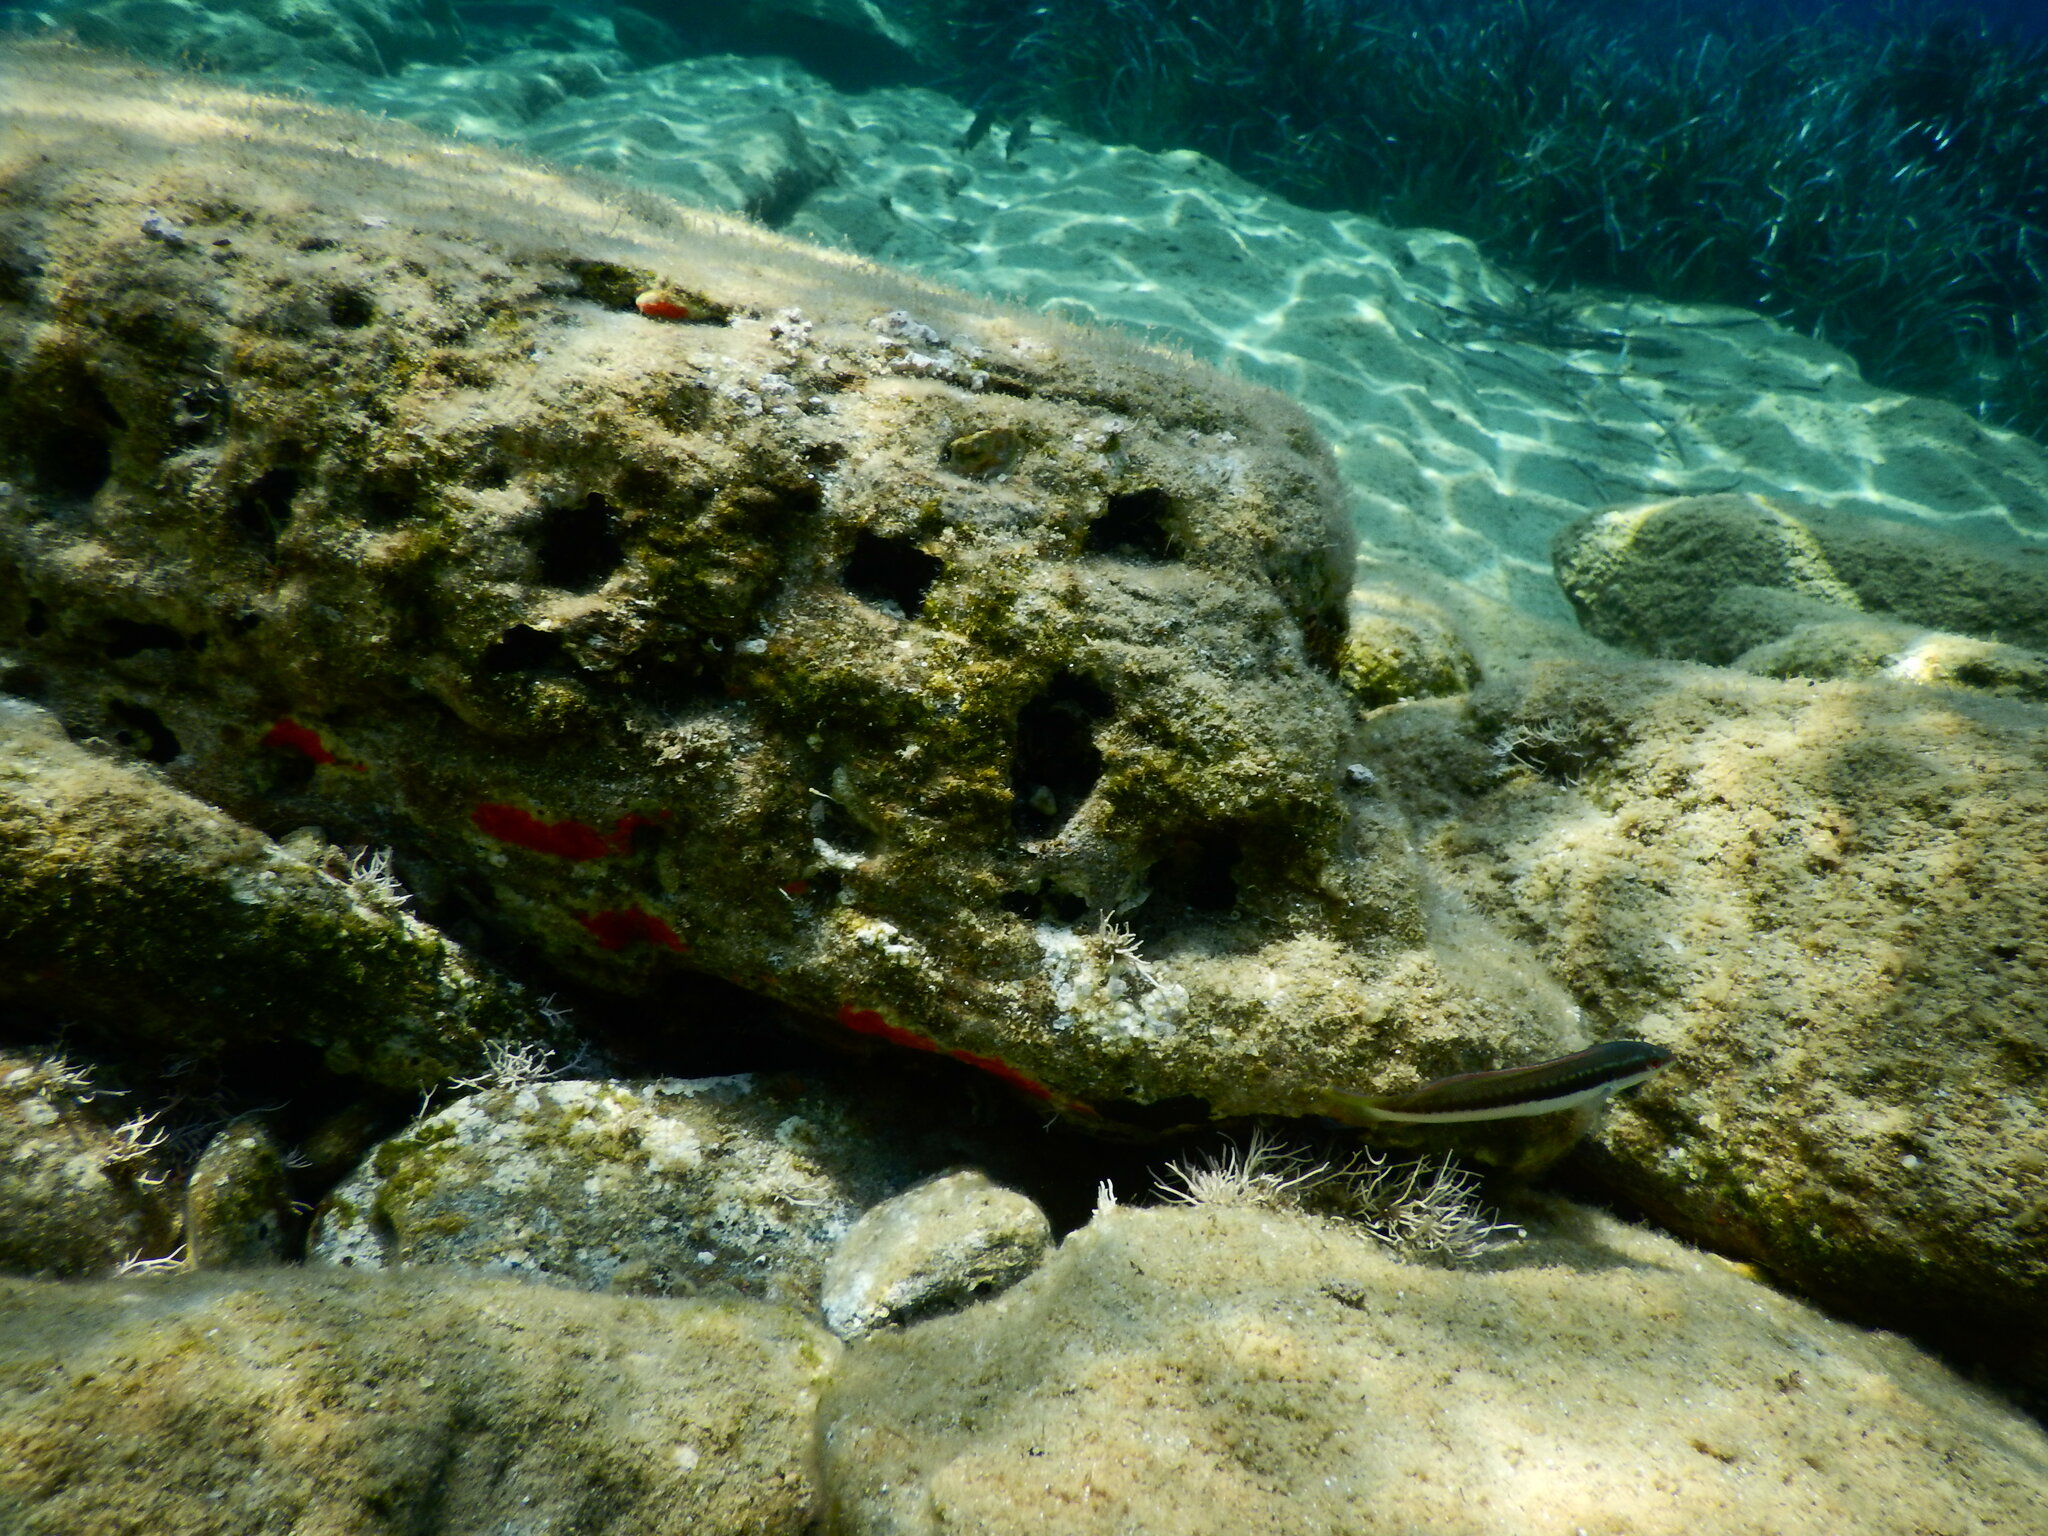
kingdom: Animalia
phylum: Chordata
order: Perciformes
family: Labridae
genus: Coris
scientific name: Coris julis
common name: Rainbow wrasse
